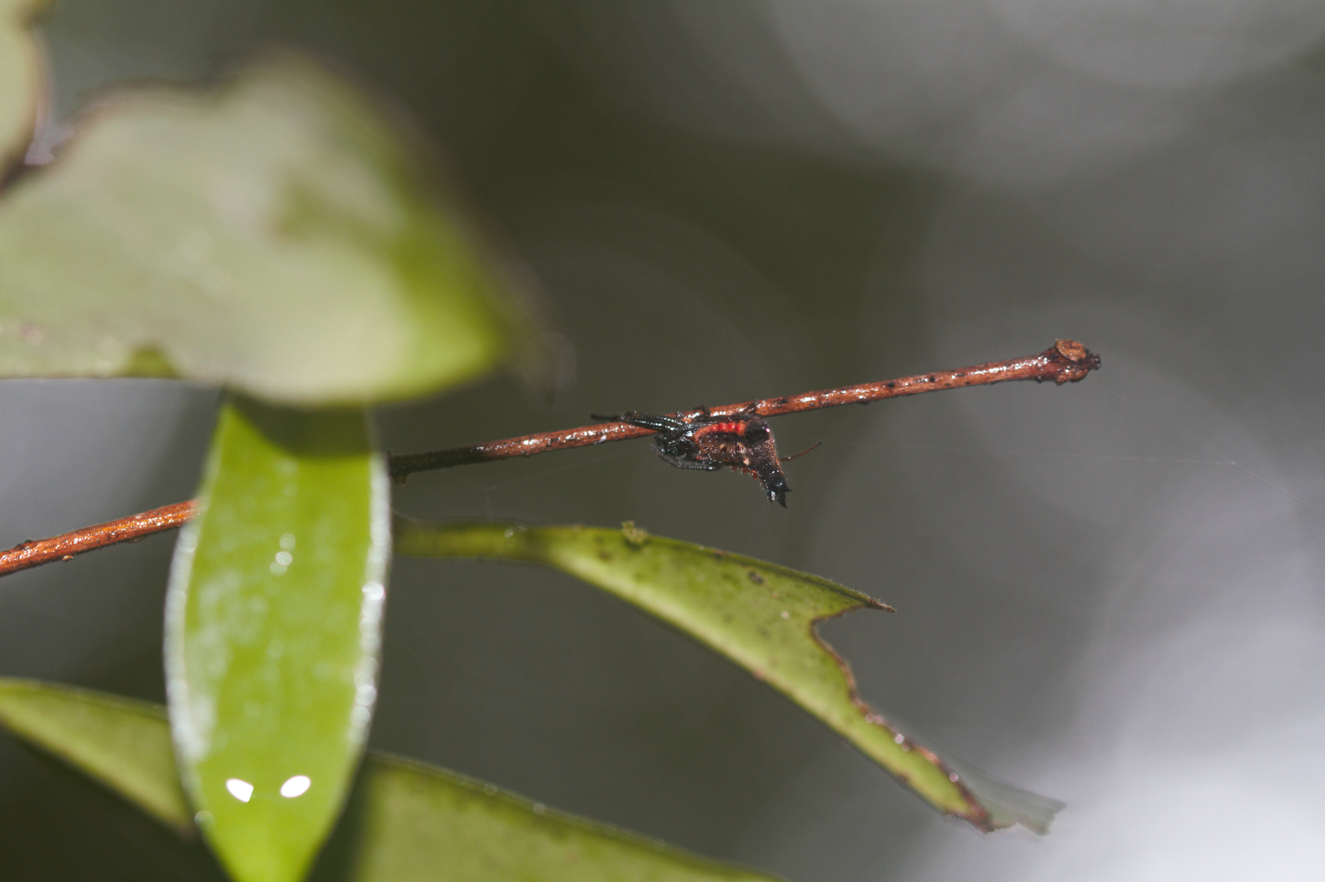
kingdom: Animalia
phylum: Arthropoda
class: Arachnida
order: Araneae
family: Araneidae
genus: Micrathena
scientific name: Micrathena triangularis
